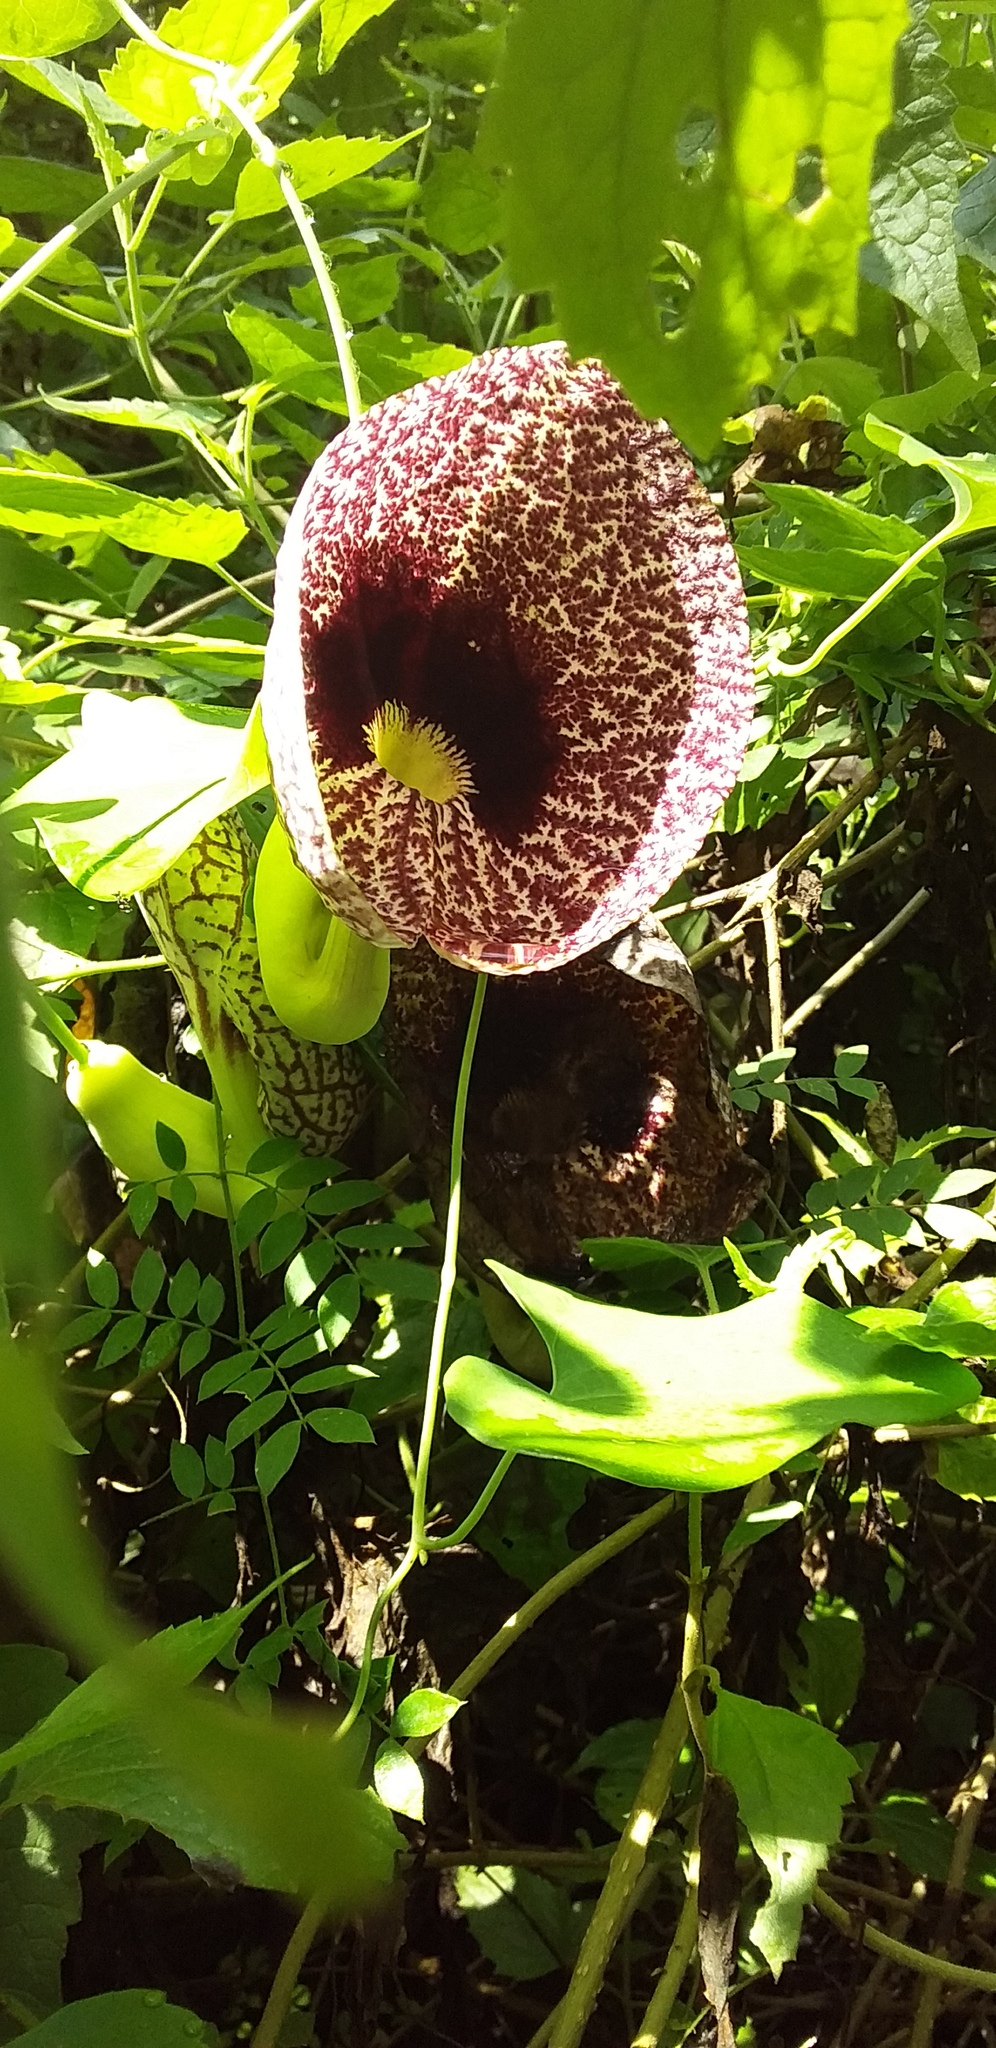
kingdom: Plantae
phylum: Tracheophyta
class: Magnoliopsida
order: Piperales
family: Aristolochiaceae
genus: Aristolochia
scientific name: Aristolochia littoralis
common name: Duck
